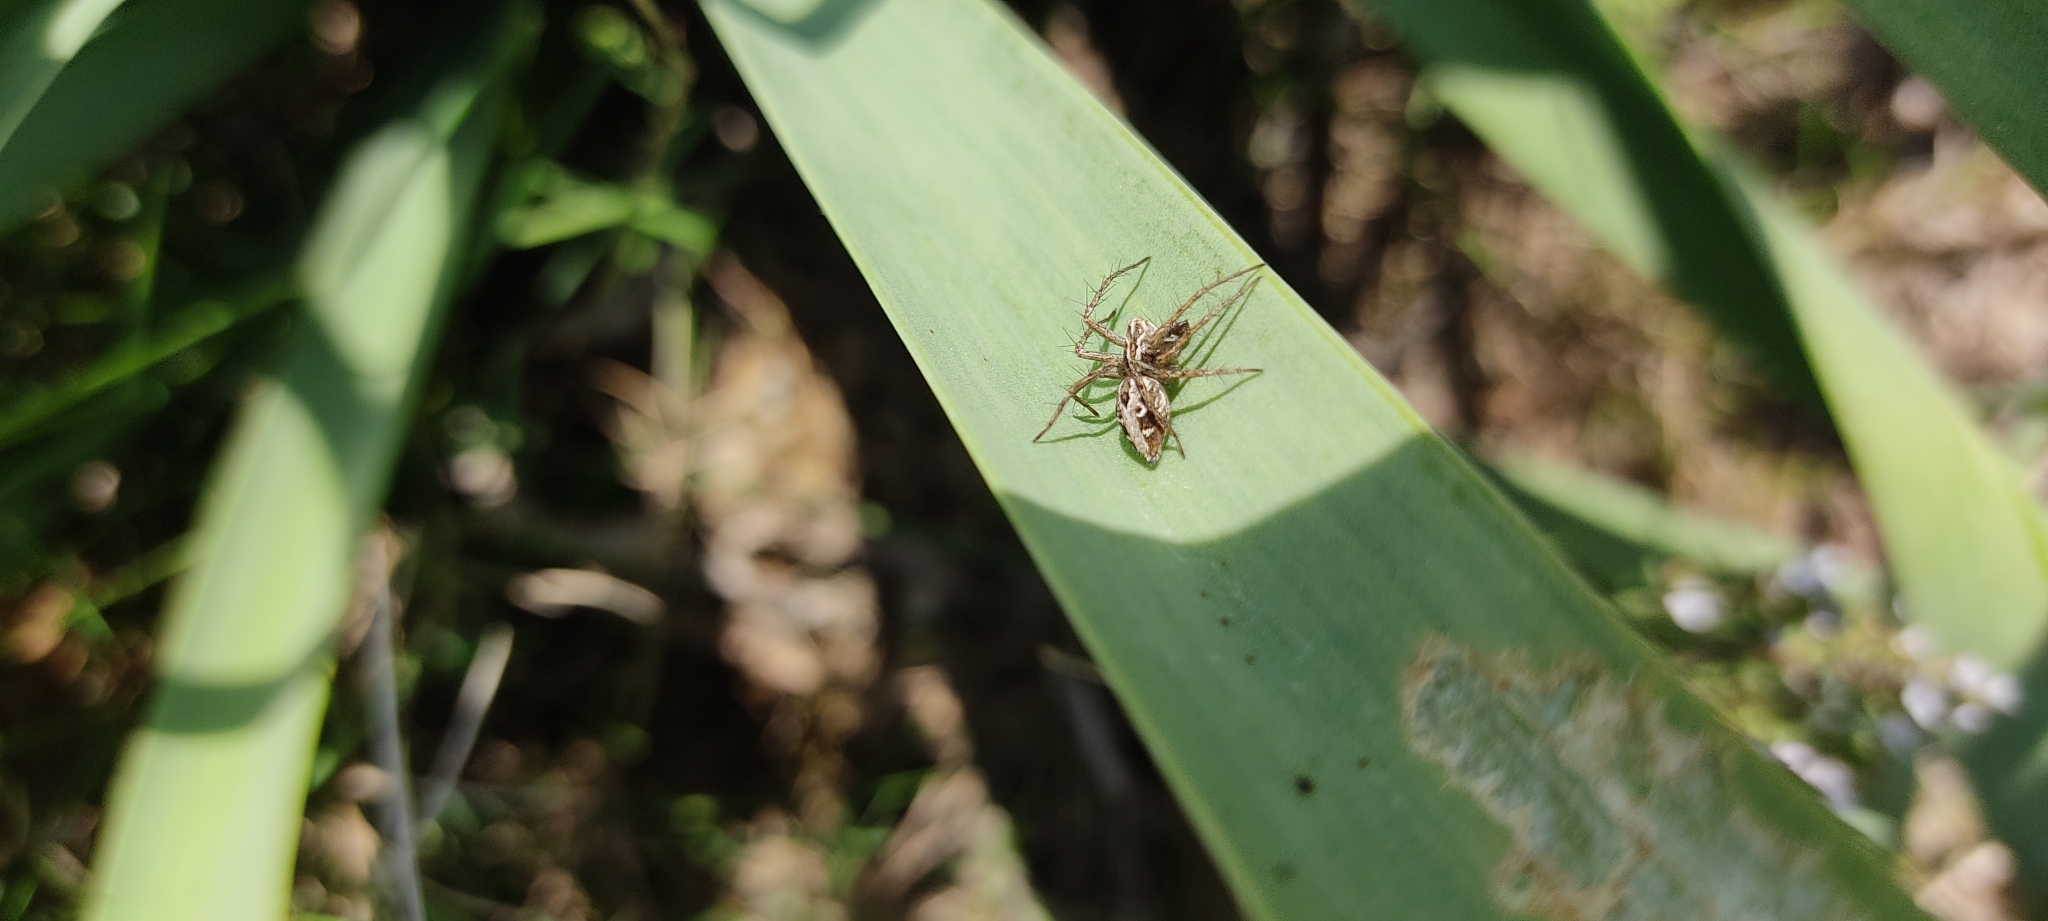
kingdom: Animalia
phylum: Arthropoda
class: Arachnida
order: Araneae
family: Oxyopidae
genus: Oxyopes
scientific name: Oxyopes heterophthalmus
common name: Lynx spider
